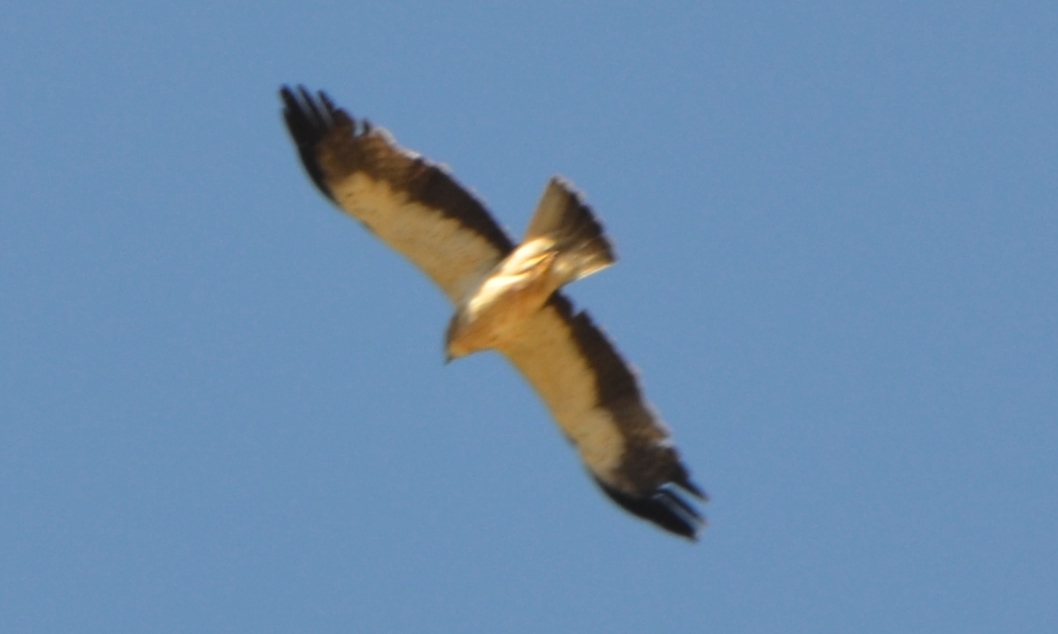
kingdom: Animalia
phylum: Chordata
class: Aves
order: Accipitriformes
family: Accipitridae
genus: Hieraaetus
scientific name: Hieraaetus pennatus
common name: Booted eagle
